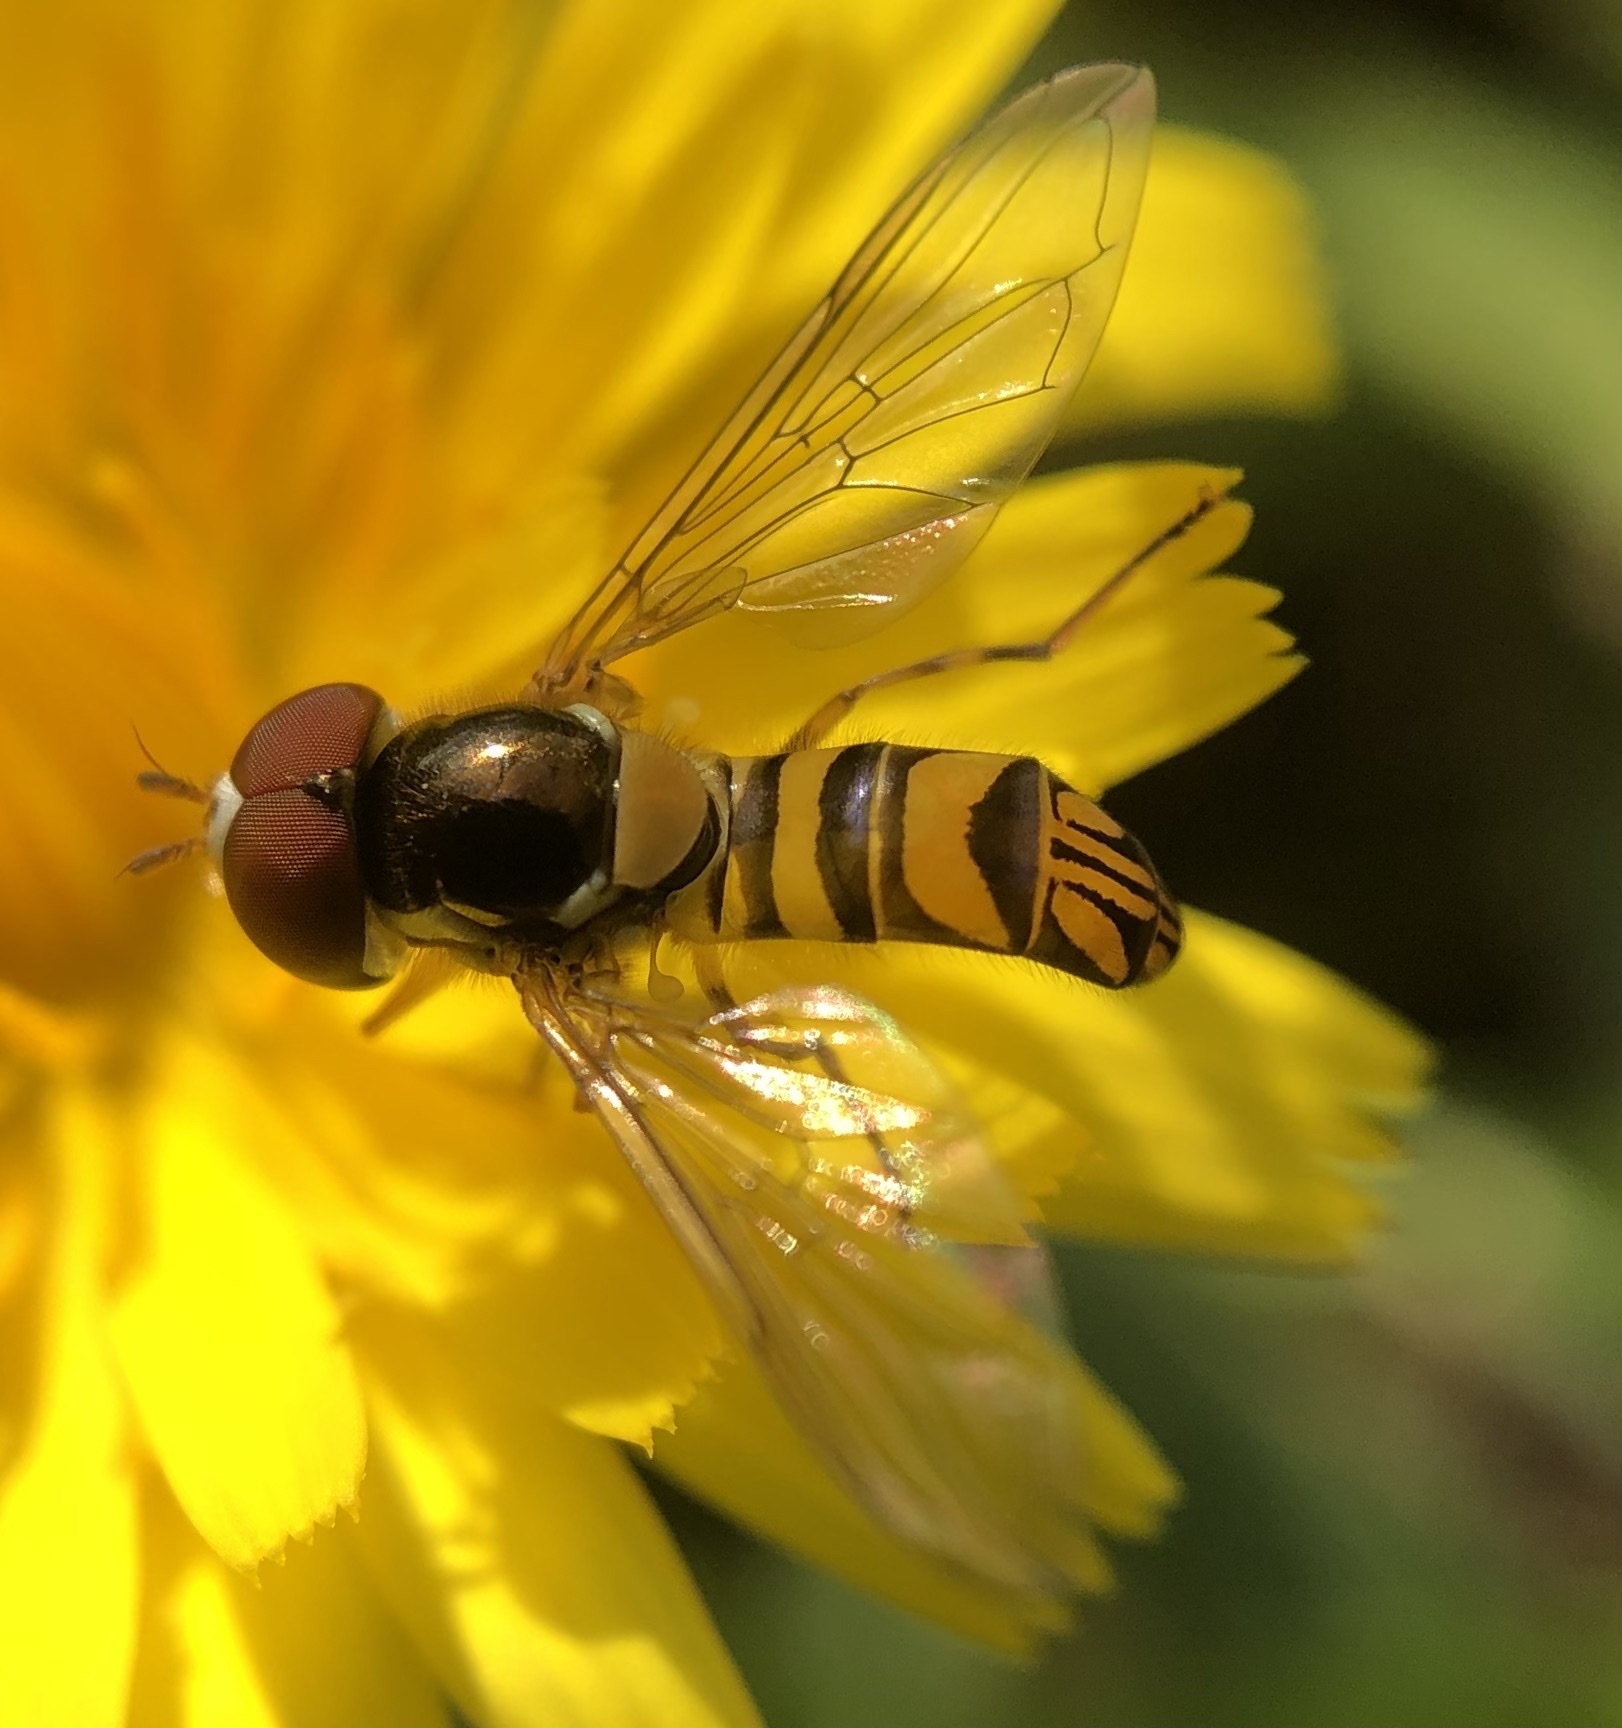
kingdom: Animalia
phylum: Arthropoda
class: Insecta
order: Diptera
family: Syrphidae
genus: Allograpta
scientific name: Allograpta obliqua
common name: Common oblique syrphid
